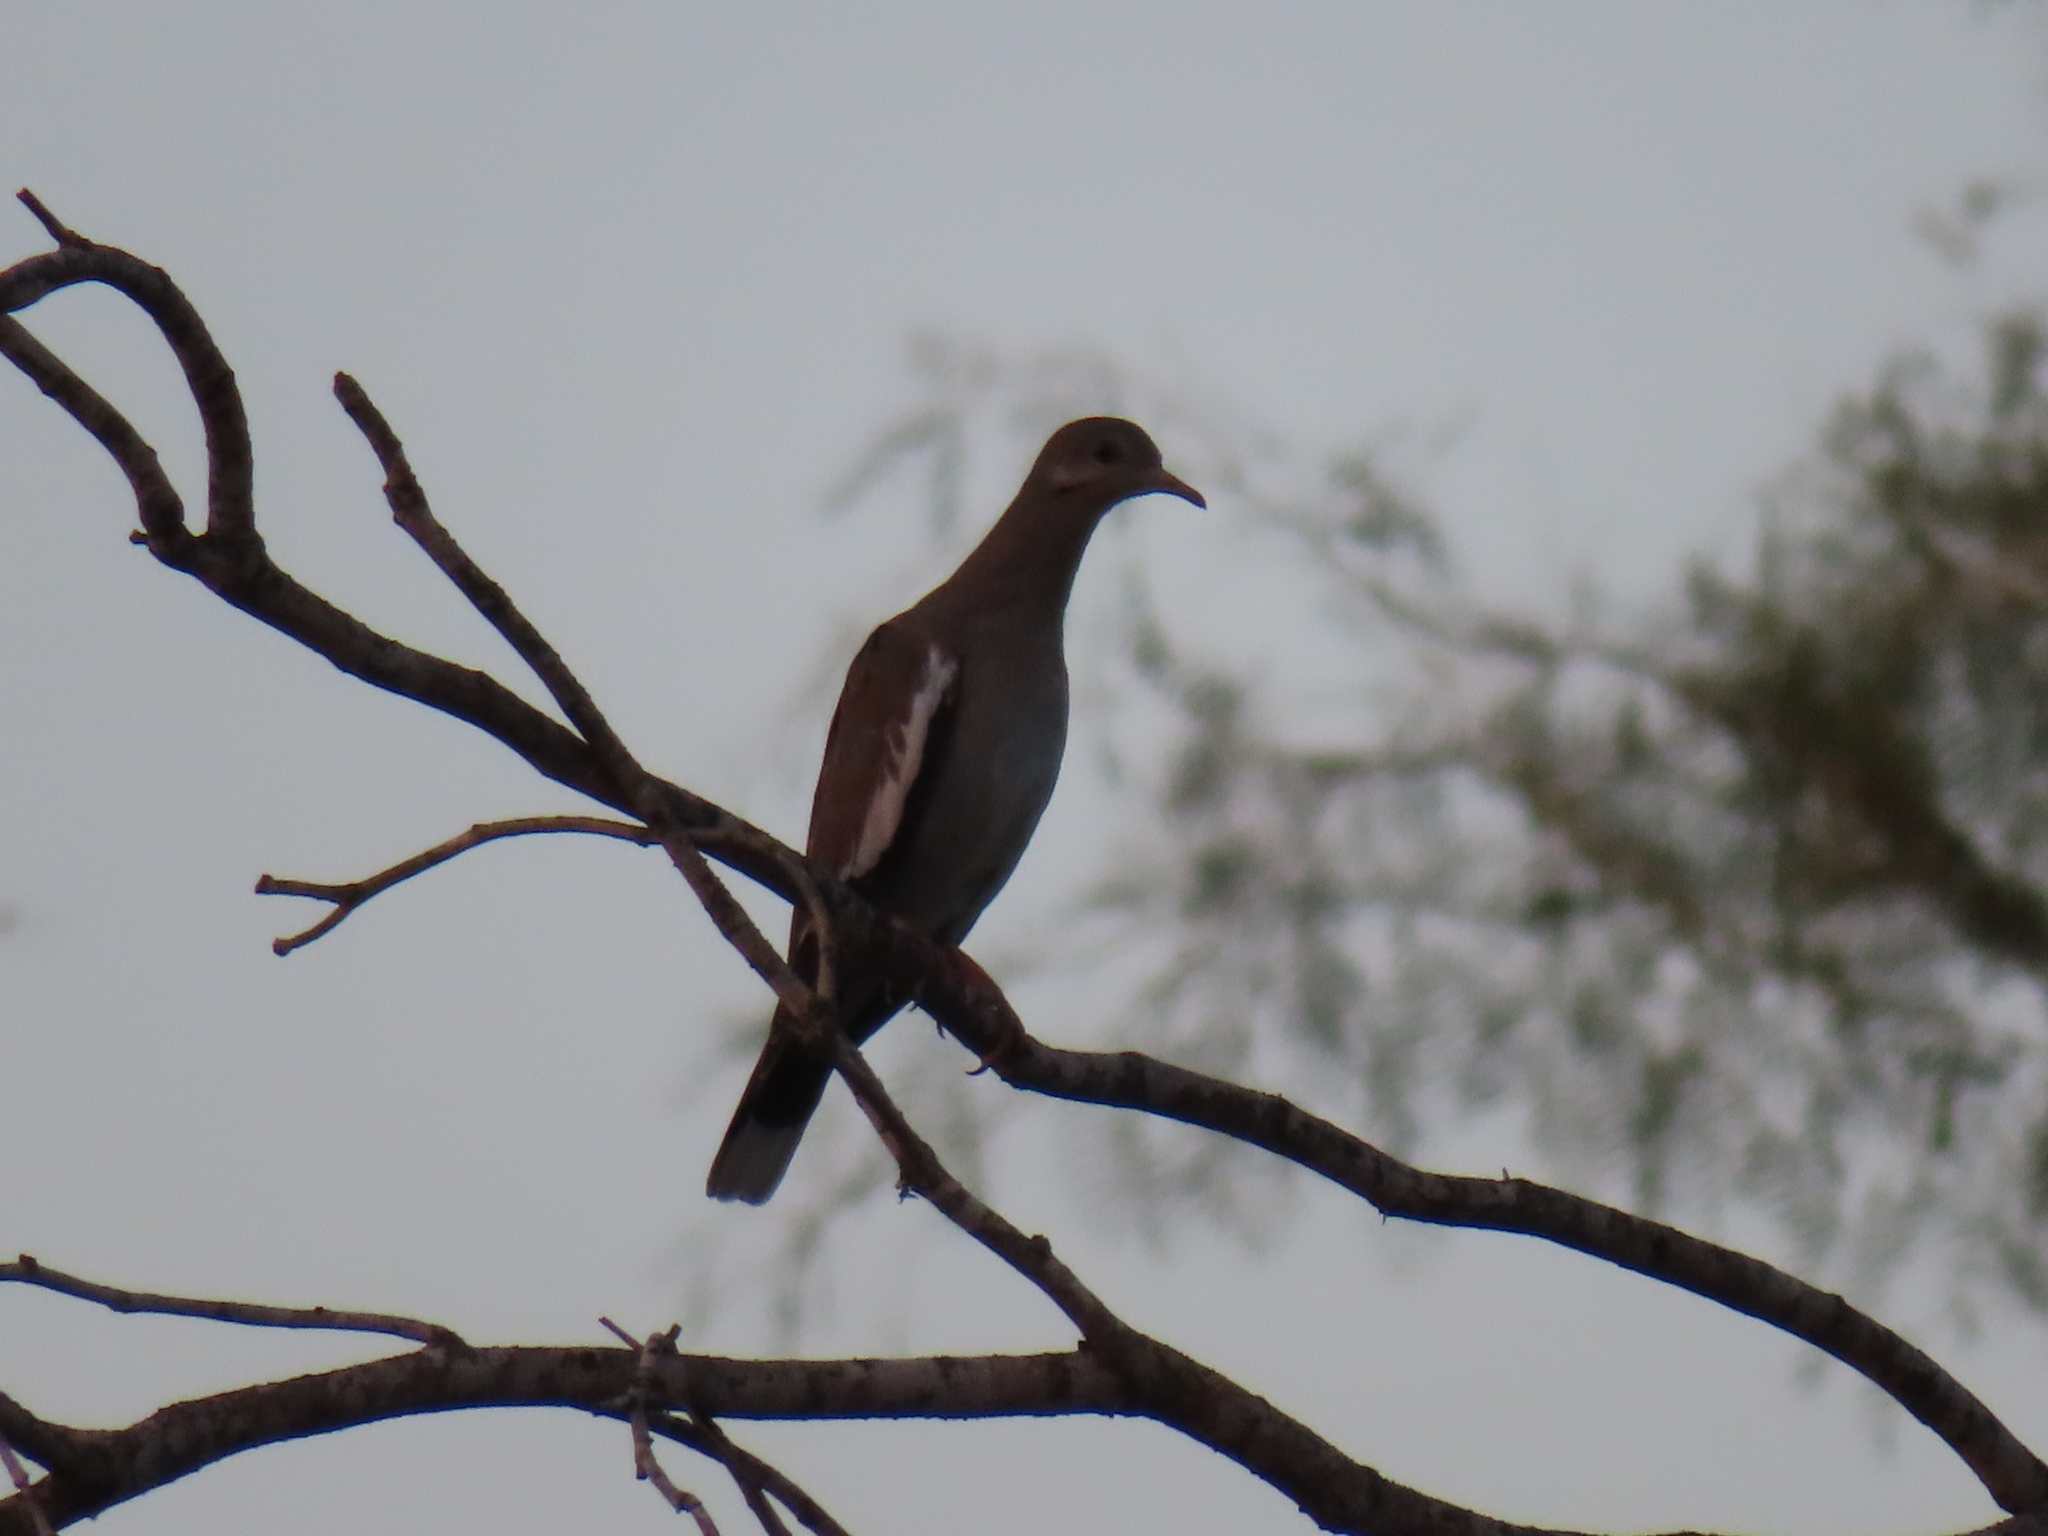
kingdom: Animalia
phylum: Chordata
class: Aves
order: Columbiformes
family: Columbidae
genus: Zenaida
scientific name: Zenaida asiatica
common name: White-winged dove
